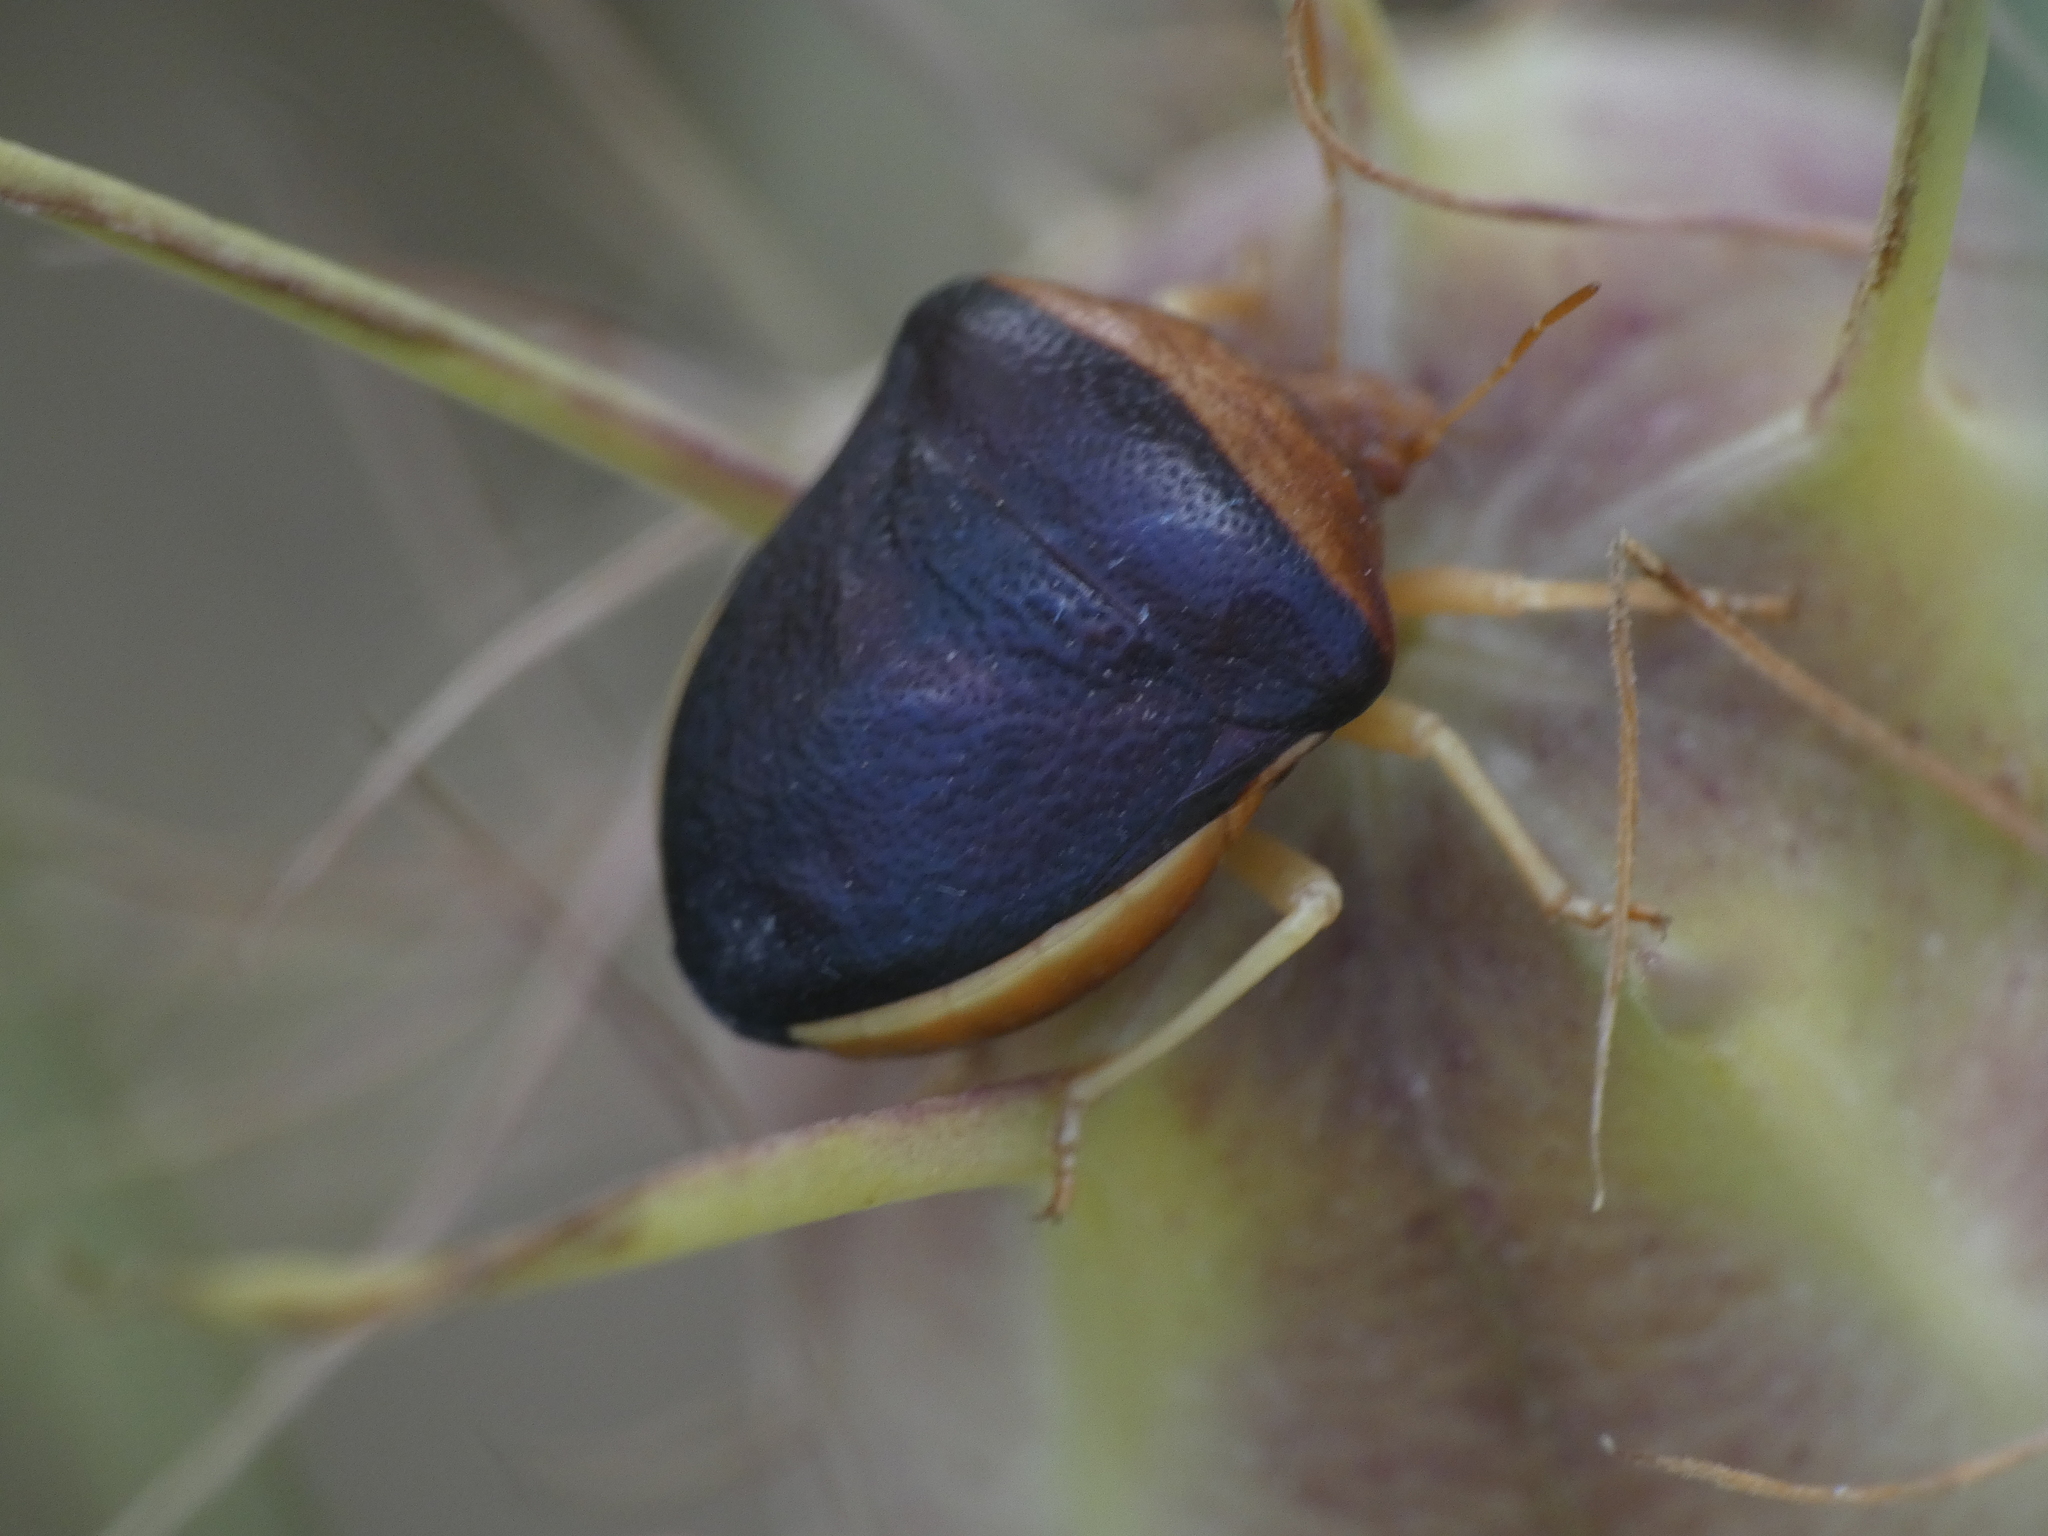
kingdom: Animalia
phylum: Arthropoda
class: Insecta
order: Hemiptera
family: Pentatomidae
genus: Ventocoris
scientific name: Ventocoris rusticus
